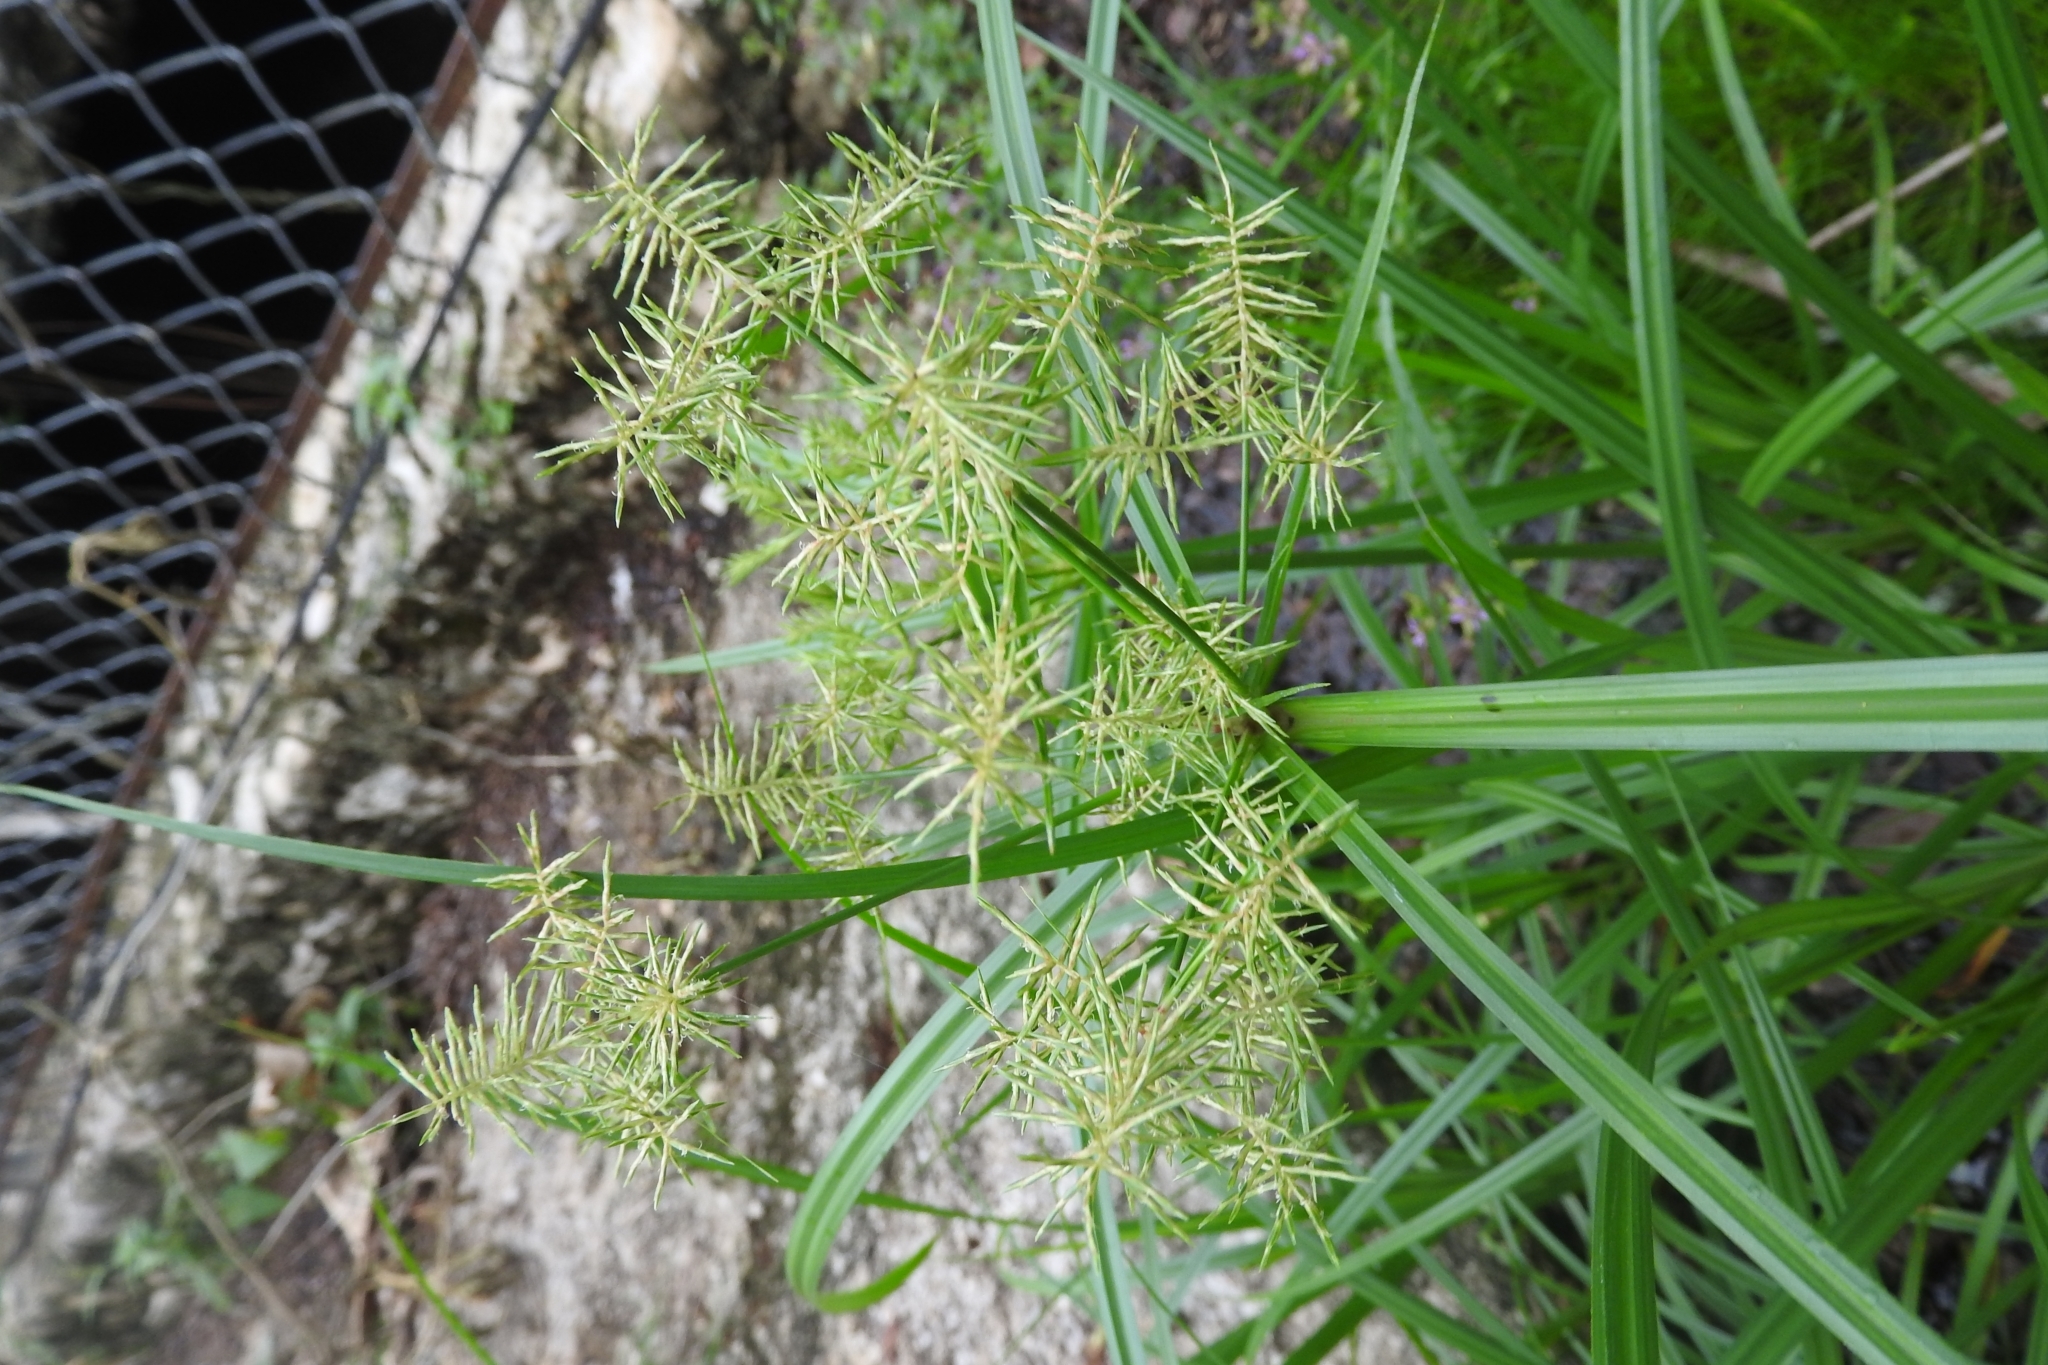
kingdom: Plantae
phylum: Tracheophyta
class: Liliopsida
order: Poales
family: Cyperaceae
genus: Cyperus
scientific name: Cyperus alternifolius
